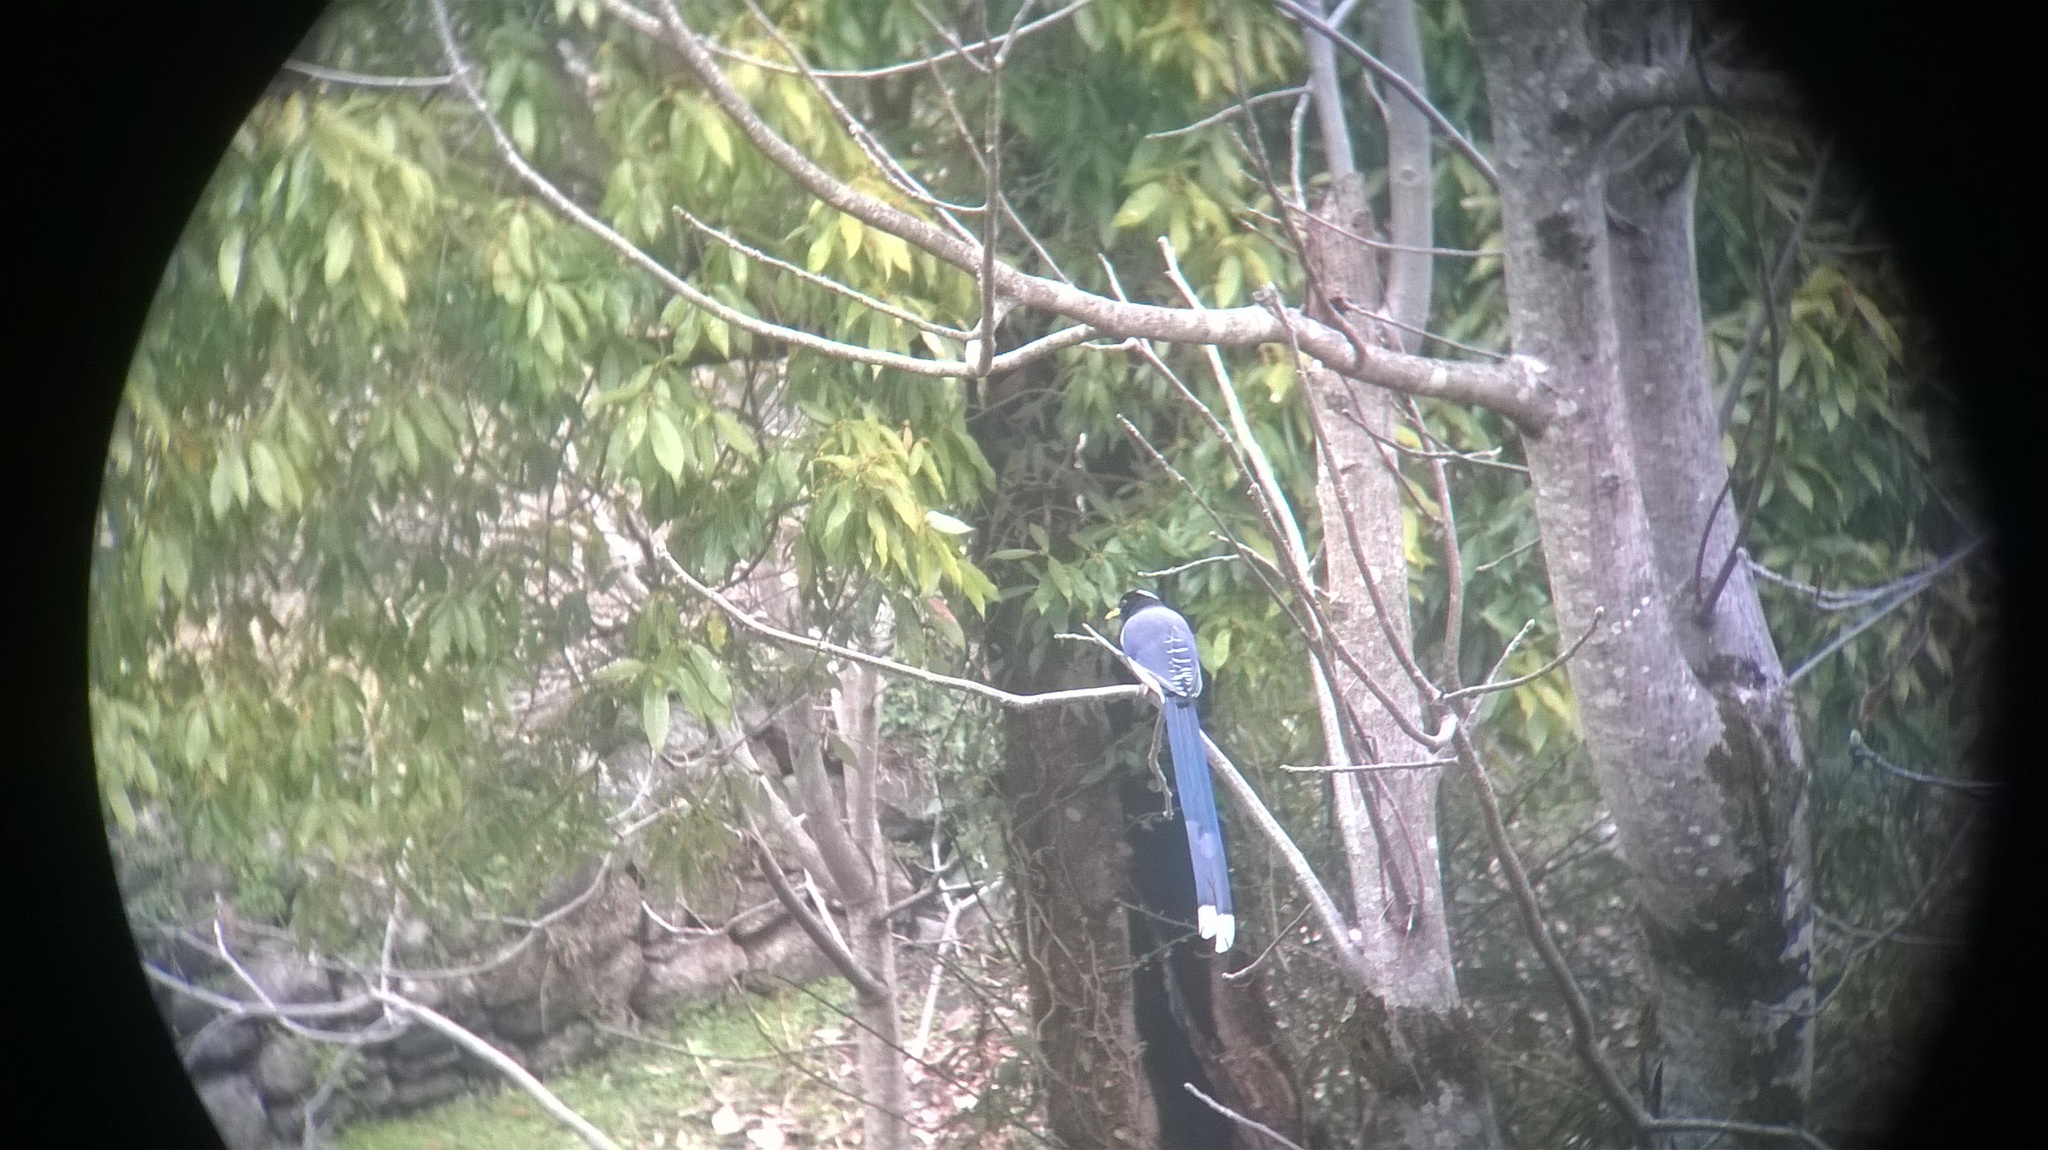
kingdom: Animalia
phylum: Chordata
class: Aves
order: Passeriformes
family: Corvidae
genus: Urocissa
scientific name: Urocissa flavirostris
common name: Yellow-billed blue magpie
